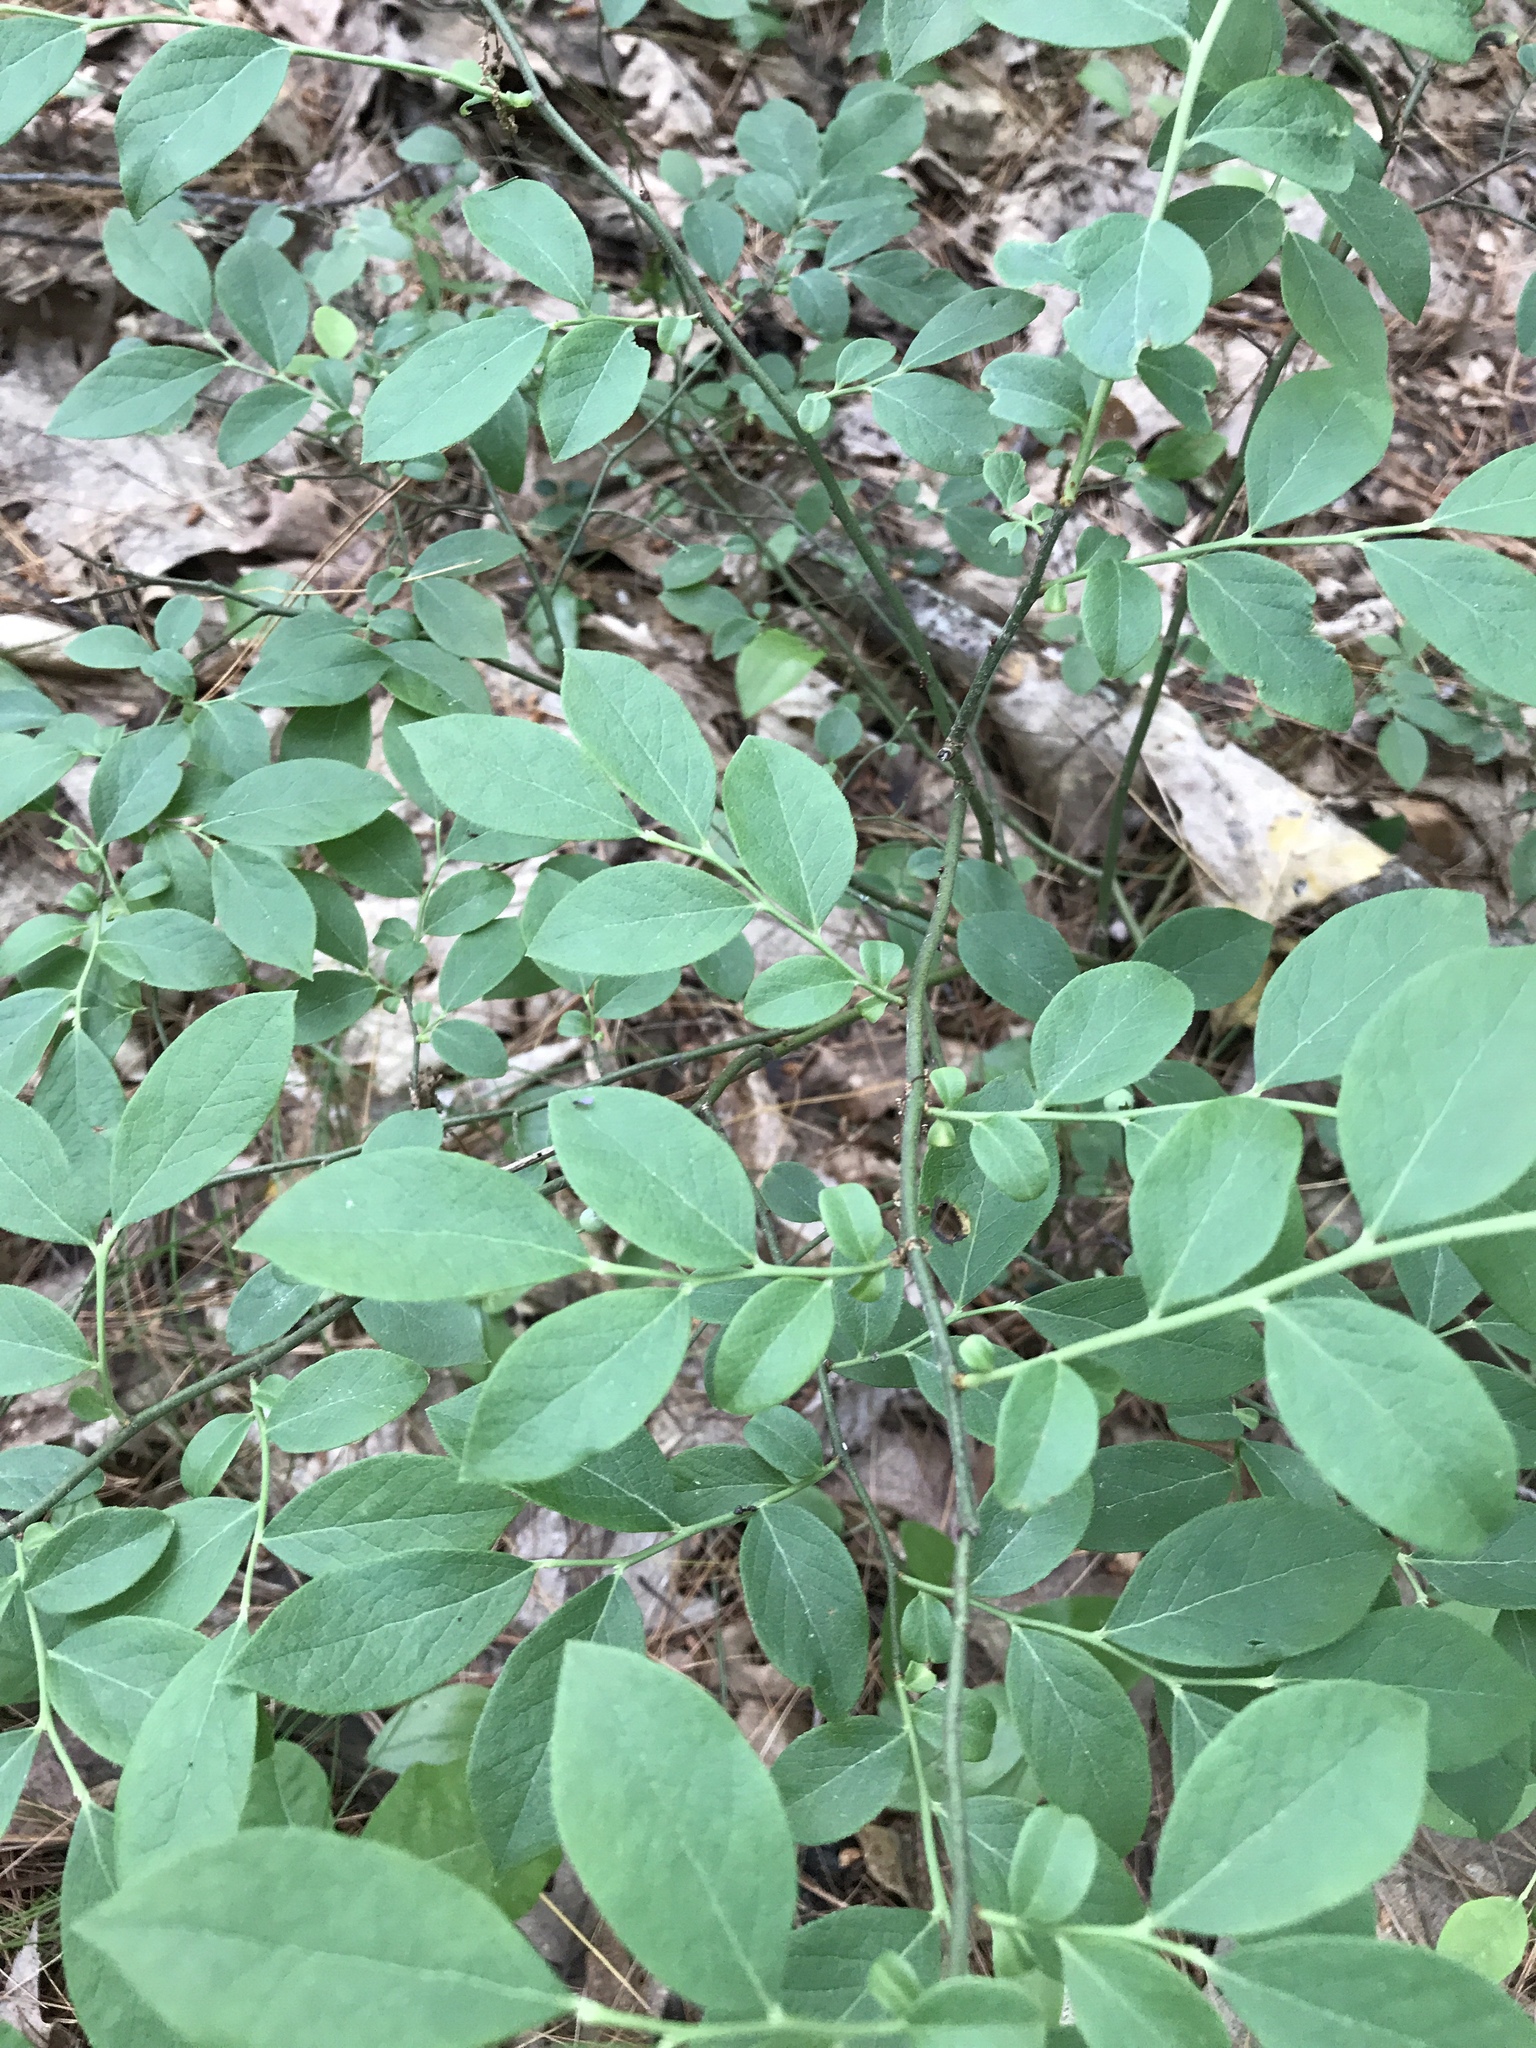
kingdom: Plantae
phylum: Tracheophyta
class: Magnoliopsida
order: Ericales
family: Ericaceae
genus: Vaccinium
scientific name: Vaccinium corymbosum
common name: Blueberry
